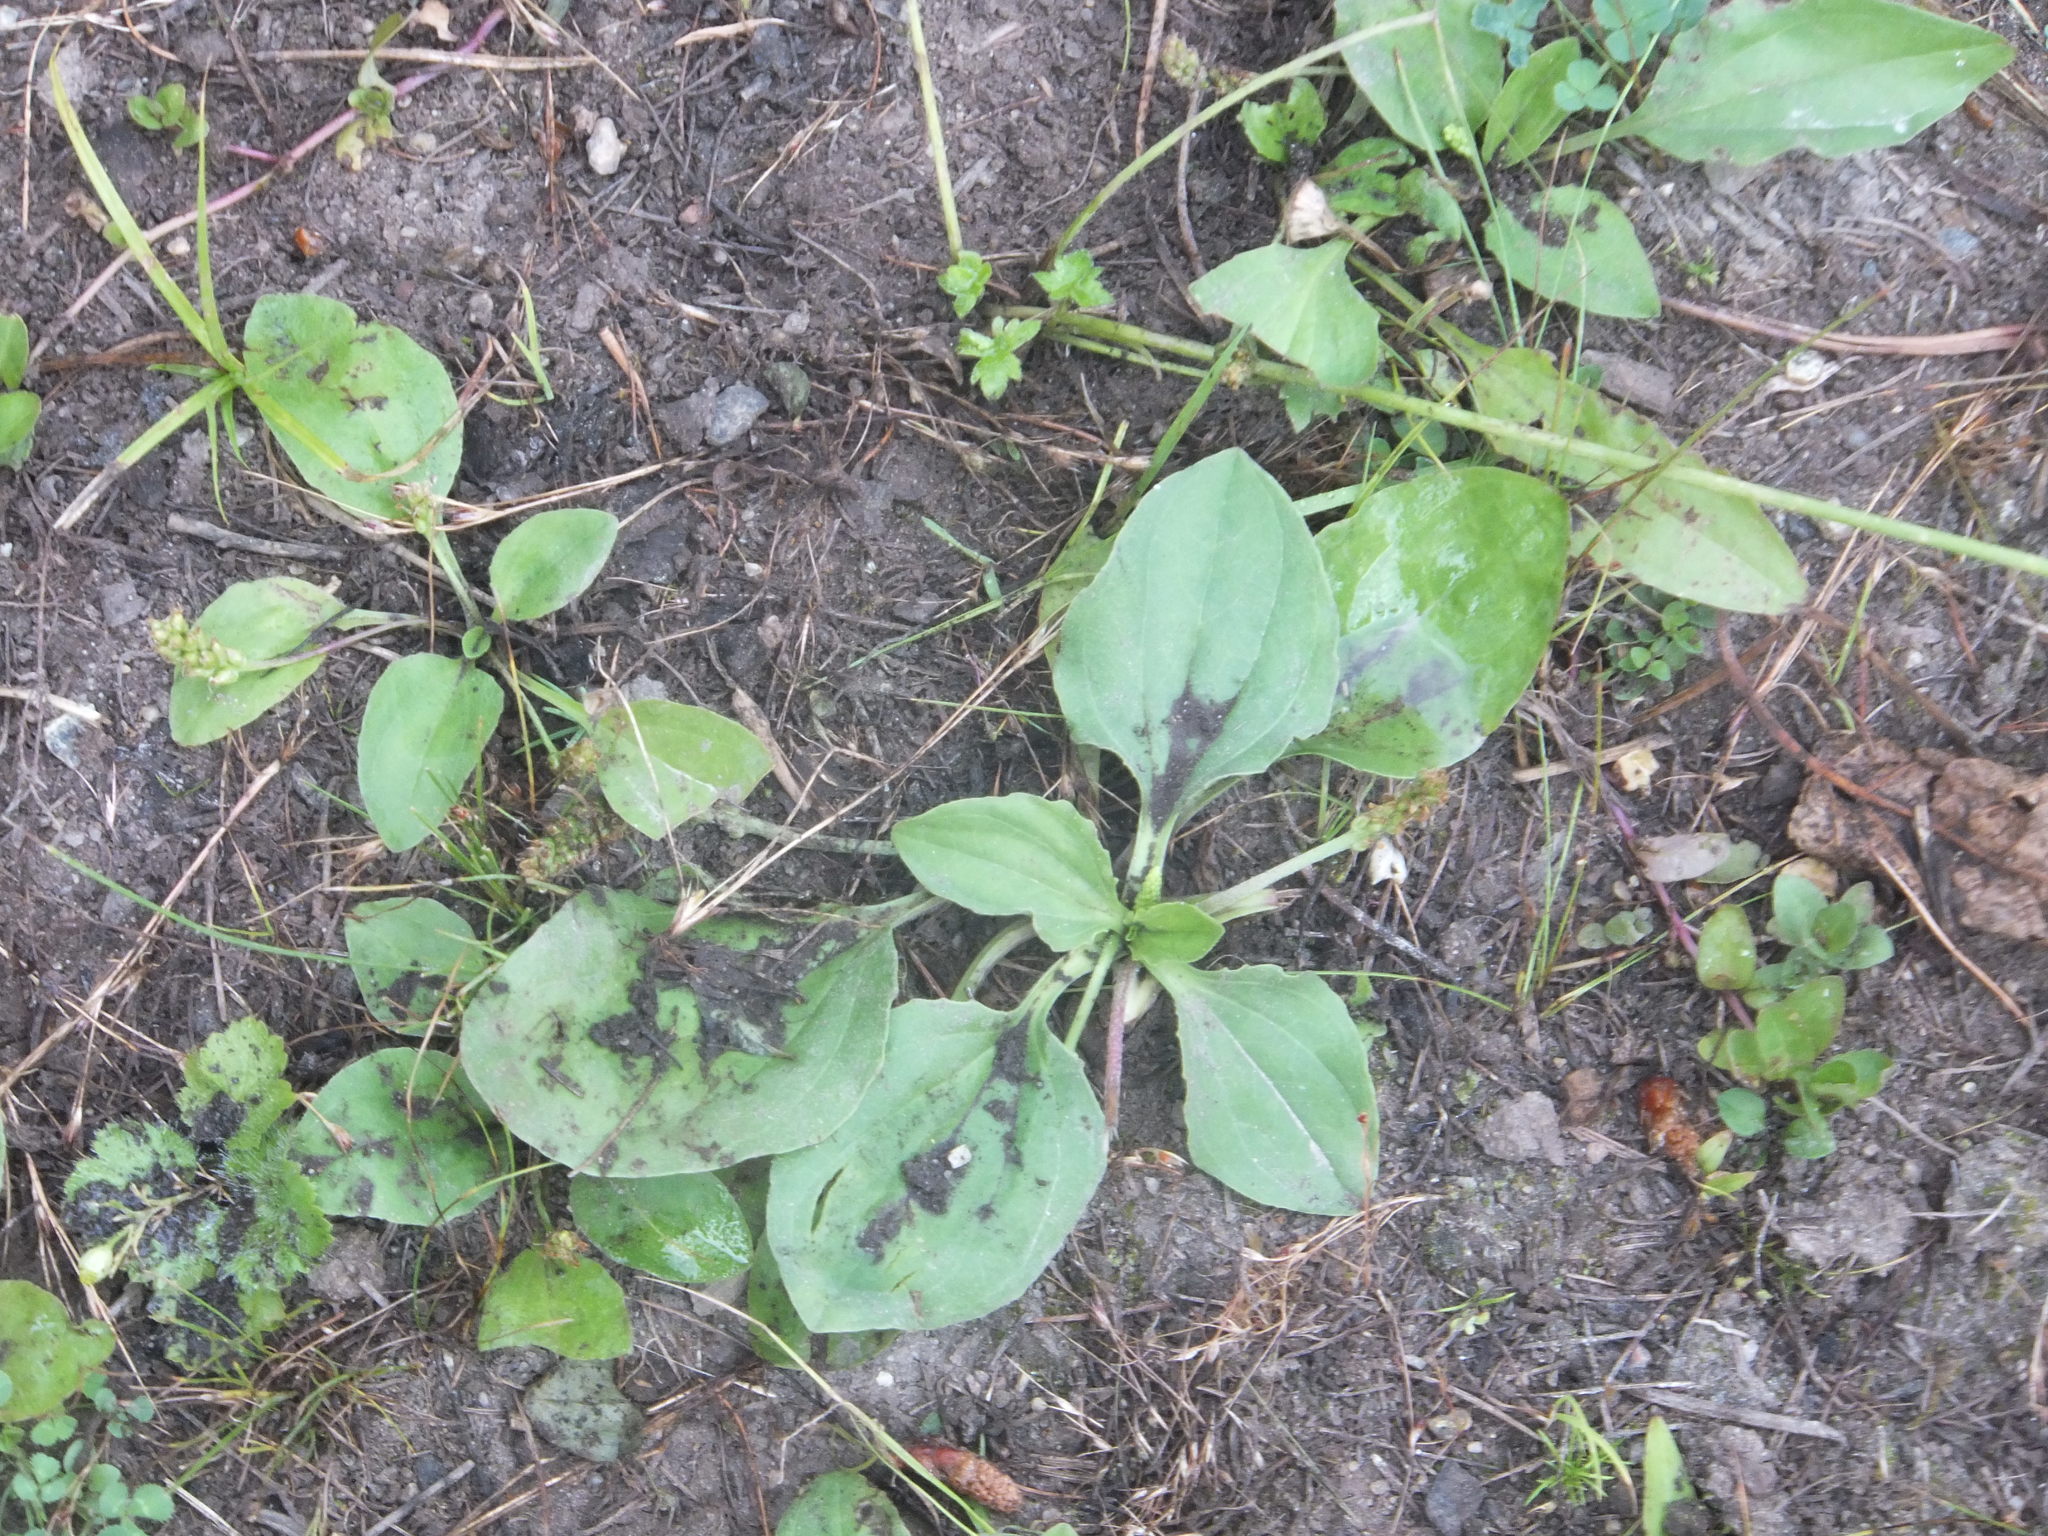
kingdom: Plantae
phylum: Tracheophyta
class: Magnoliopsida
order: Lamiales
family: Plantaginaceae
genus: Plantago
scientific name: Plantago major
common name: Common plantain
